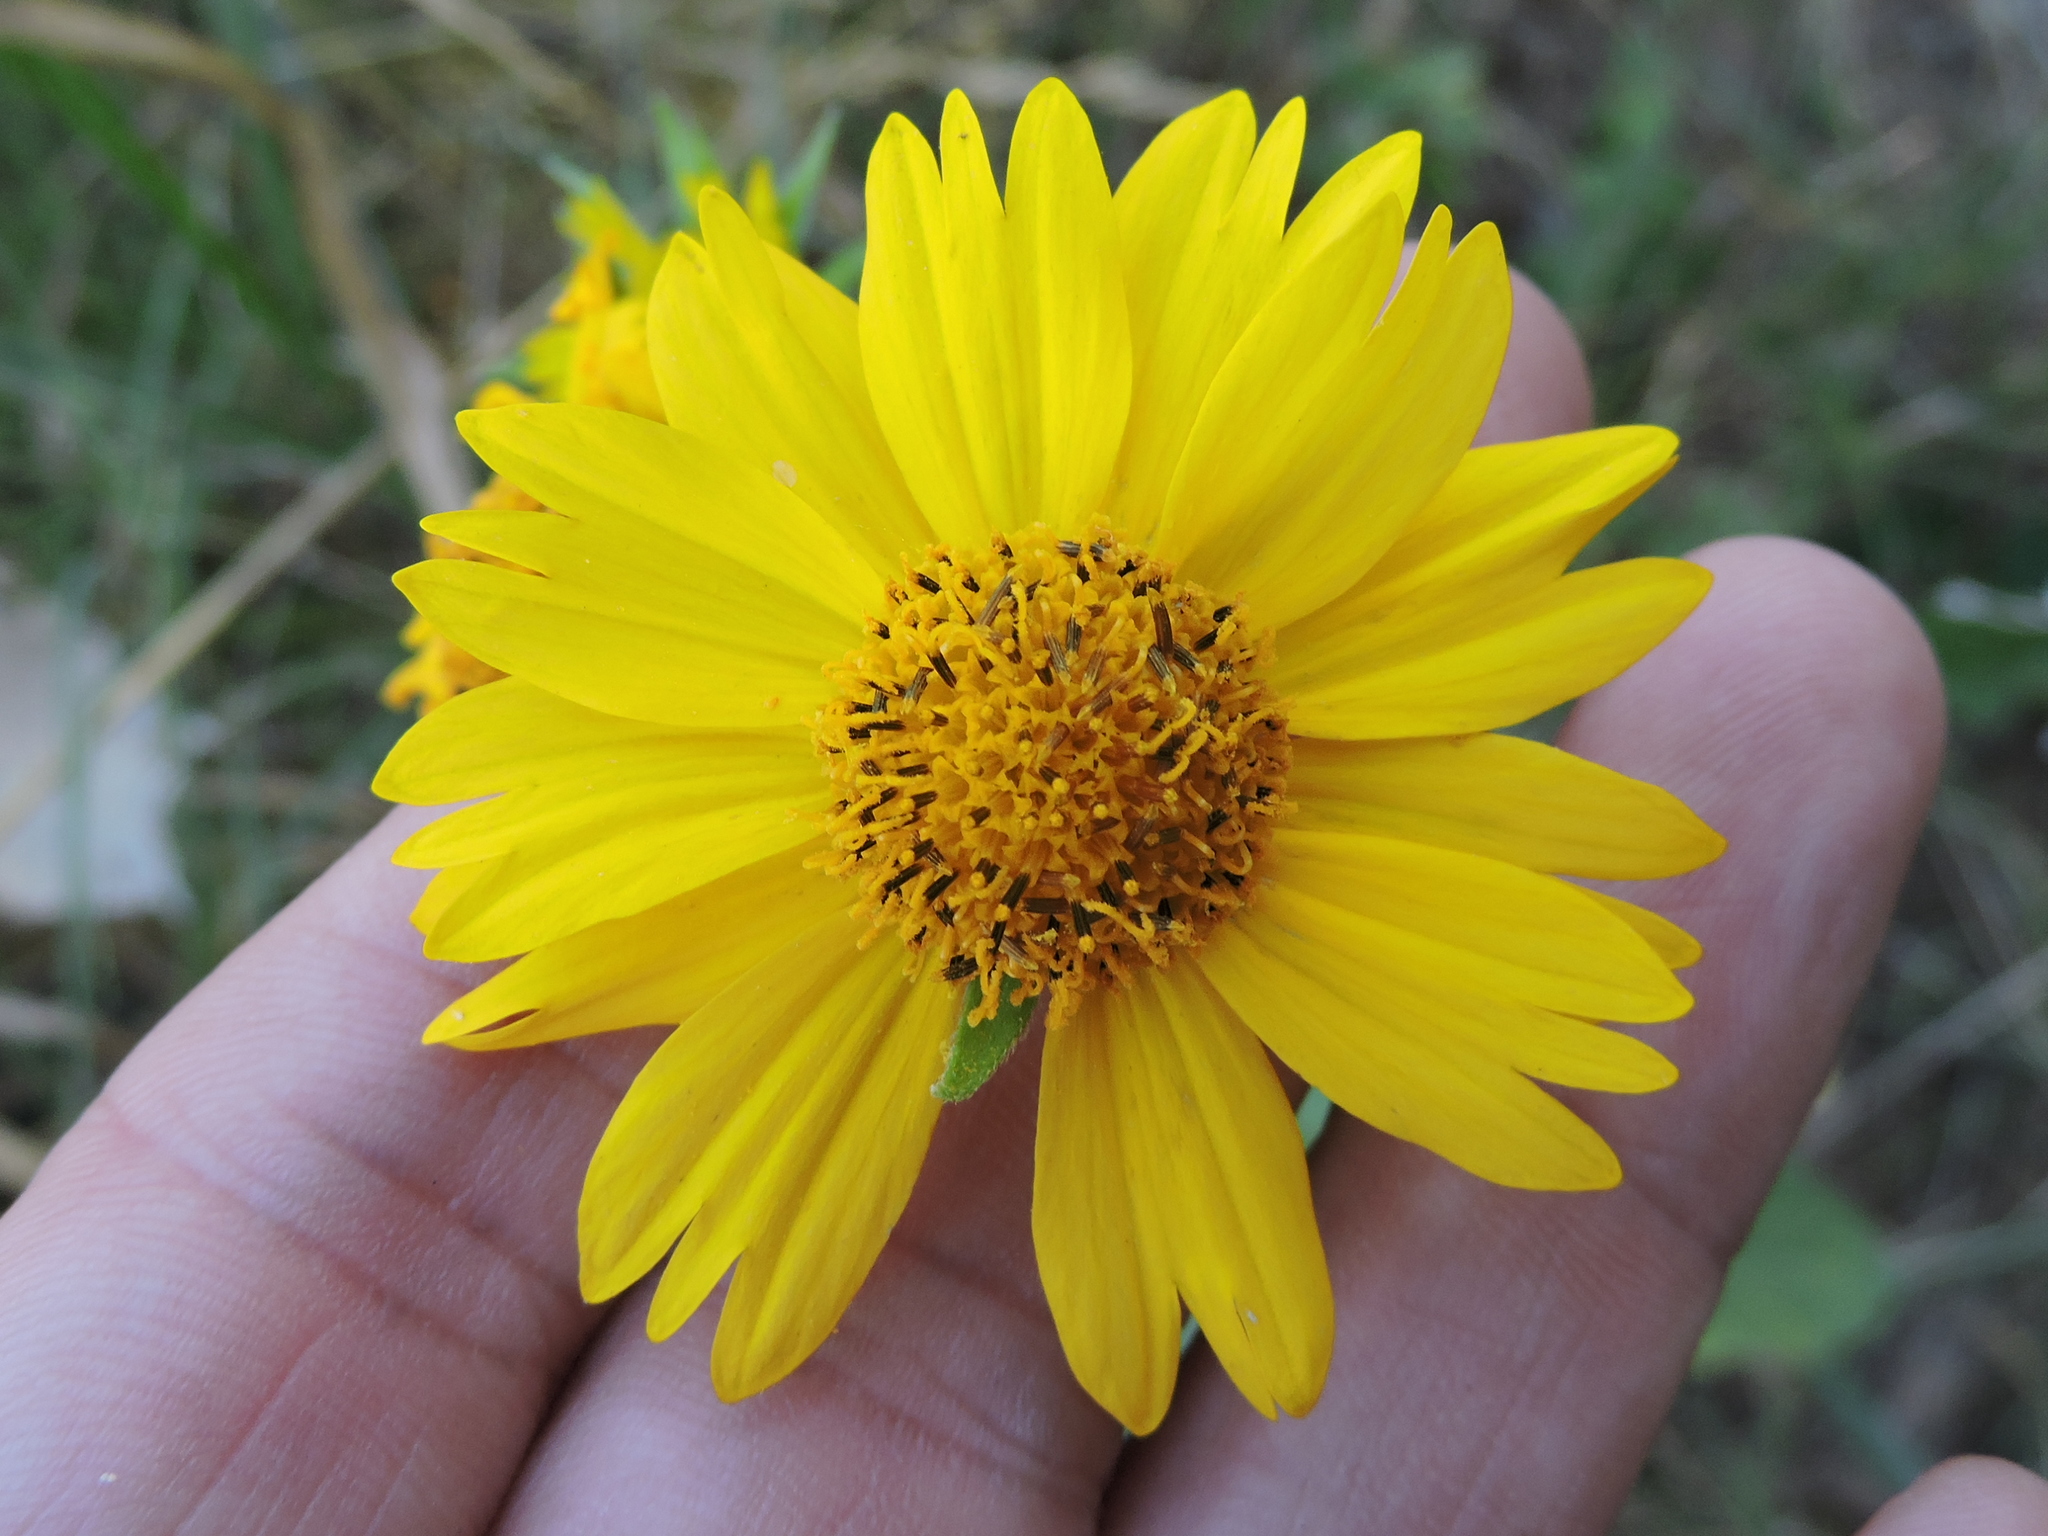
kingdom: Plantae
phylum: Tracheophyta
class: Magnoliopsida
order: Asterales
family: Asteraceae
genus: Verbesina
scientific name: Verbesina encelioides
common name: Golden crownbeard
